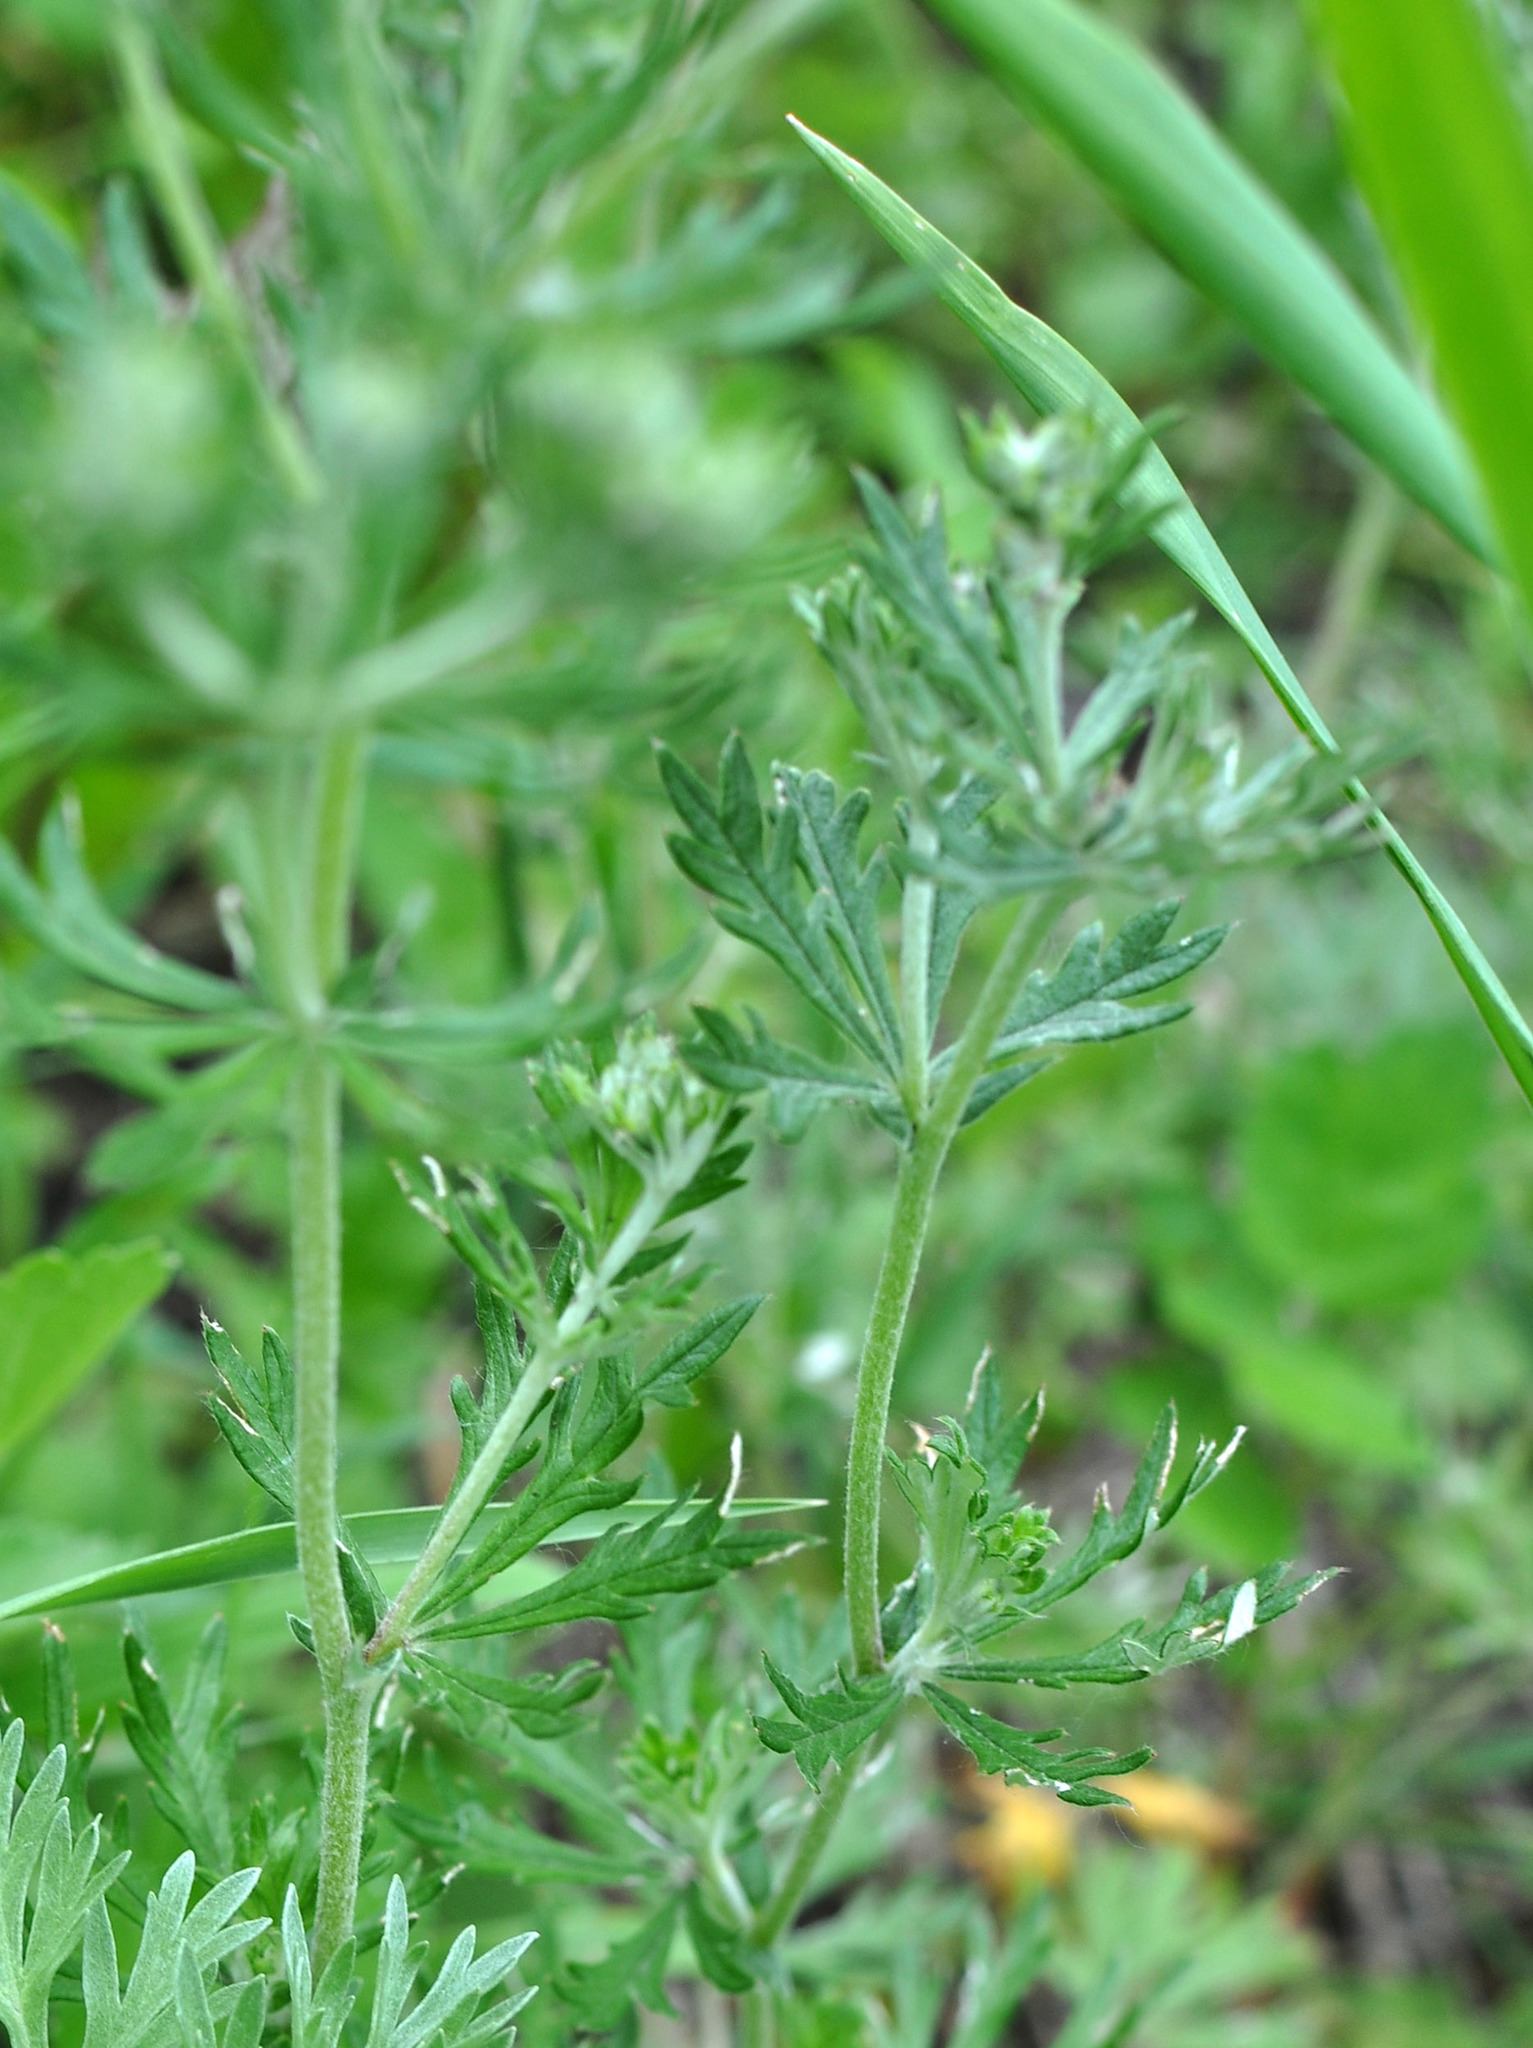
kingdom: Plantae
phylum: Tracheophyta
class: Magnoliopsida
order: Rosales
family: Rosaceae
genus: Potentilla
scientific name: Potentilla argentea
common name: Hoary cinquefoil
